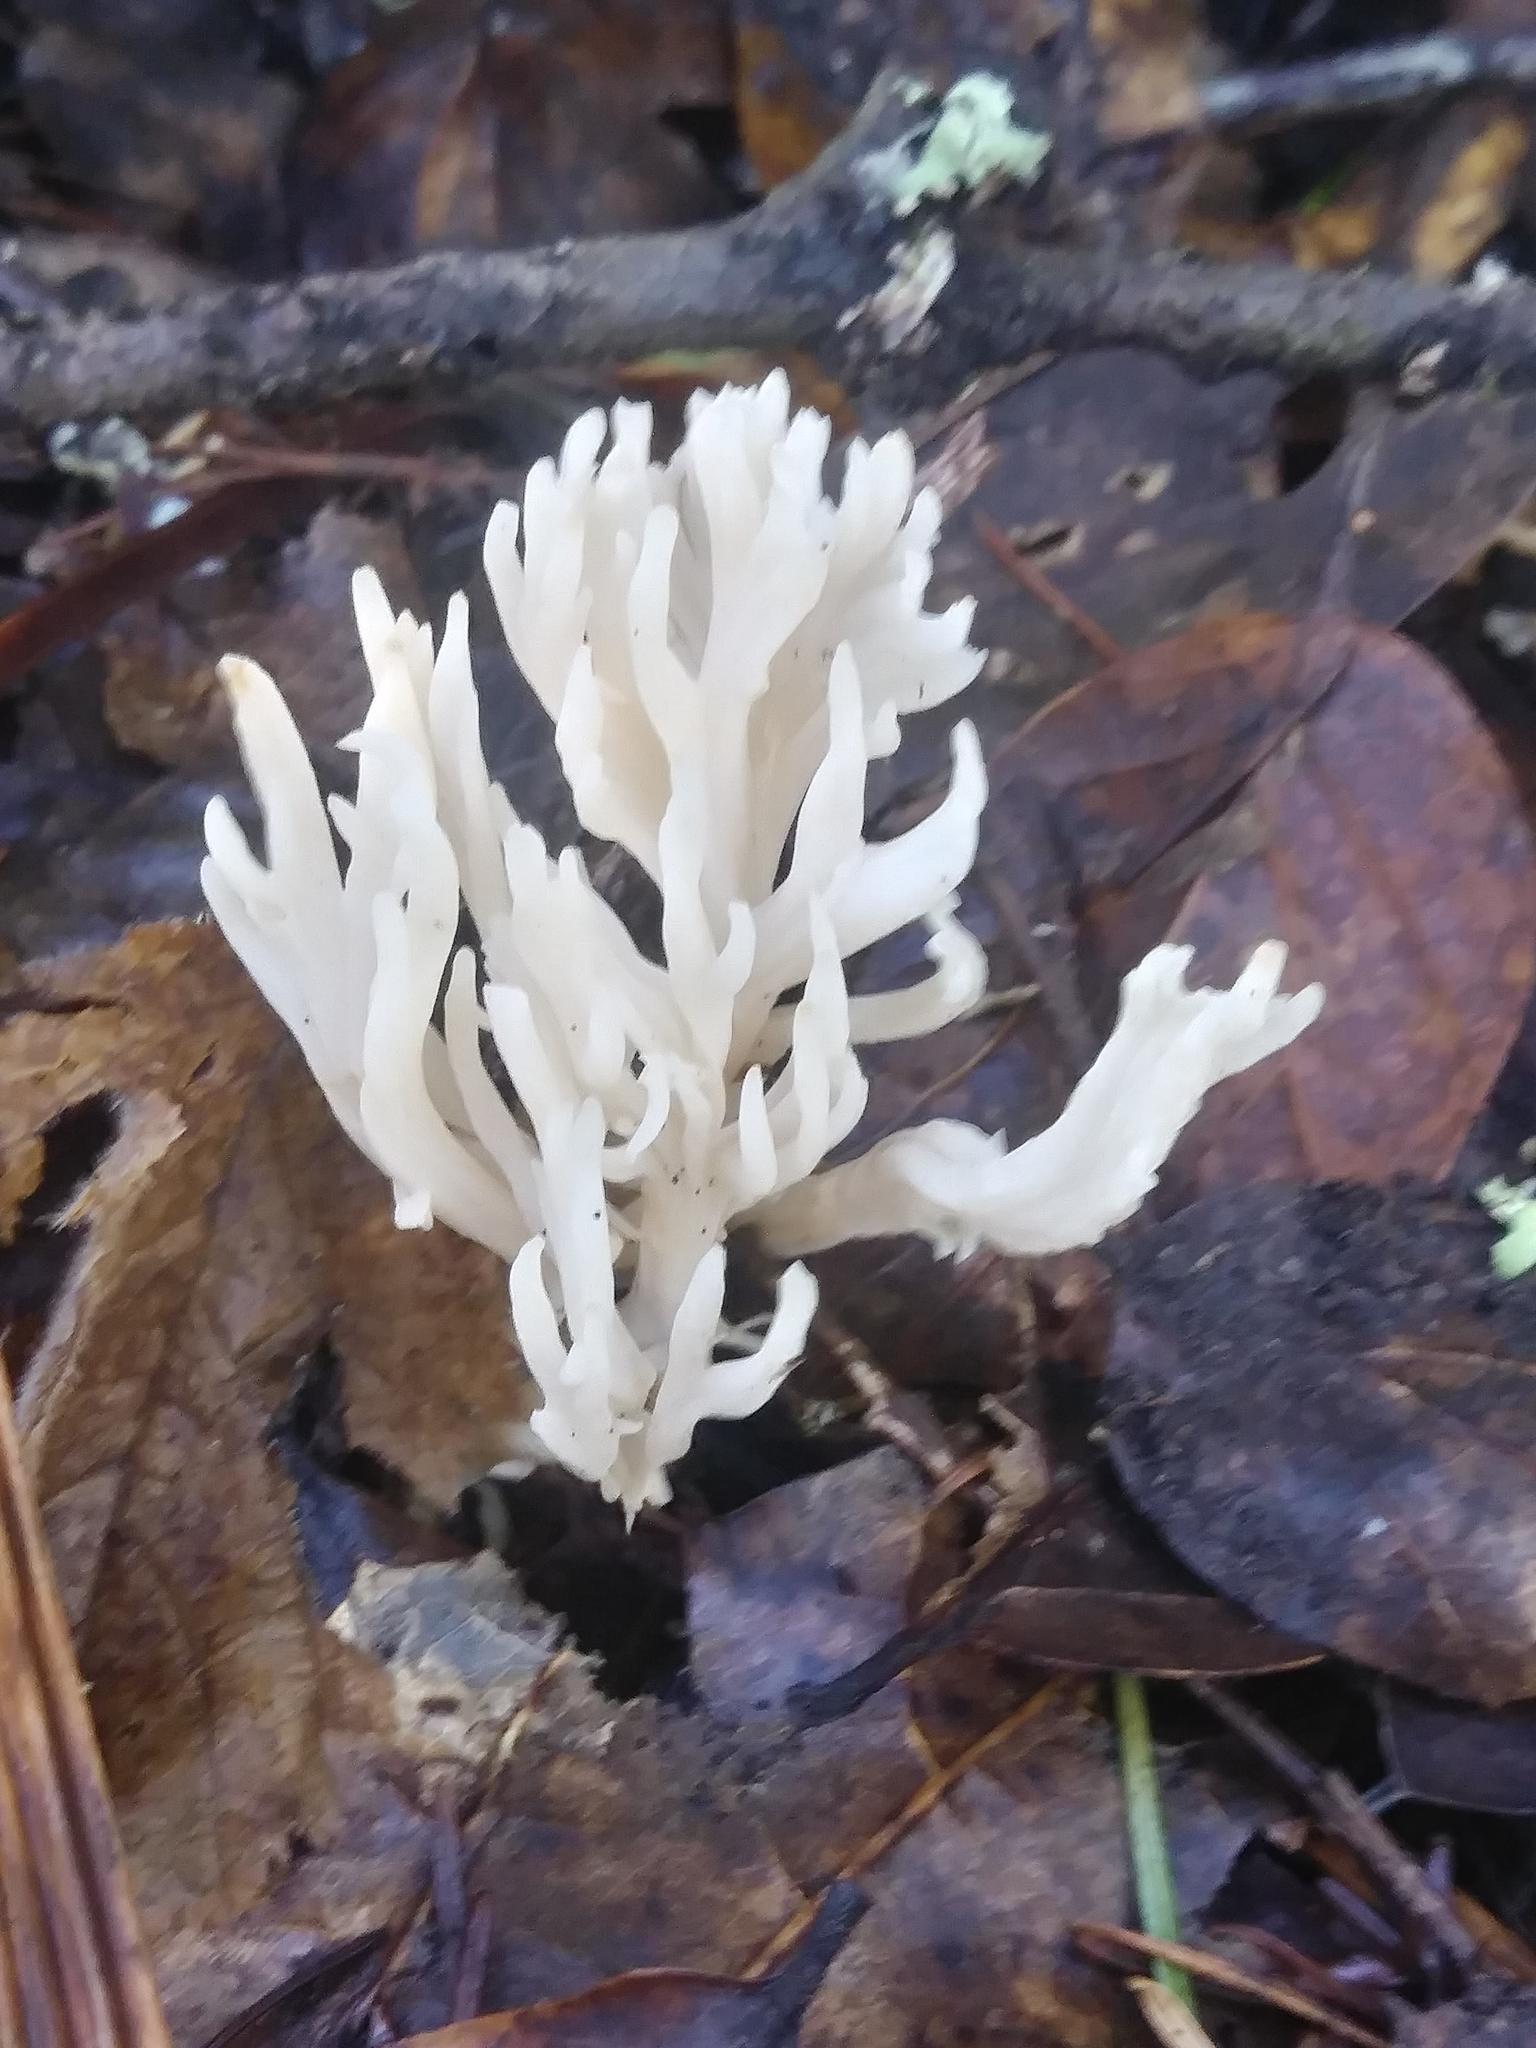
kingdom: Fungi
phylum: Basidiomycota
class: Agaricomycetes
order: Agaricales
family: Clavariaceae
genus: Ramariopsis
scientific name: Ramariopsis kunzei
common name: Ivory coral
